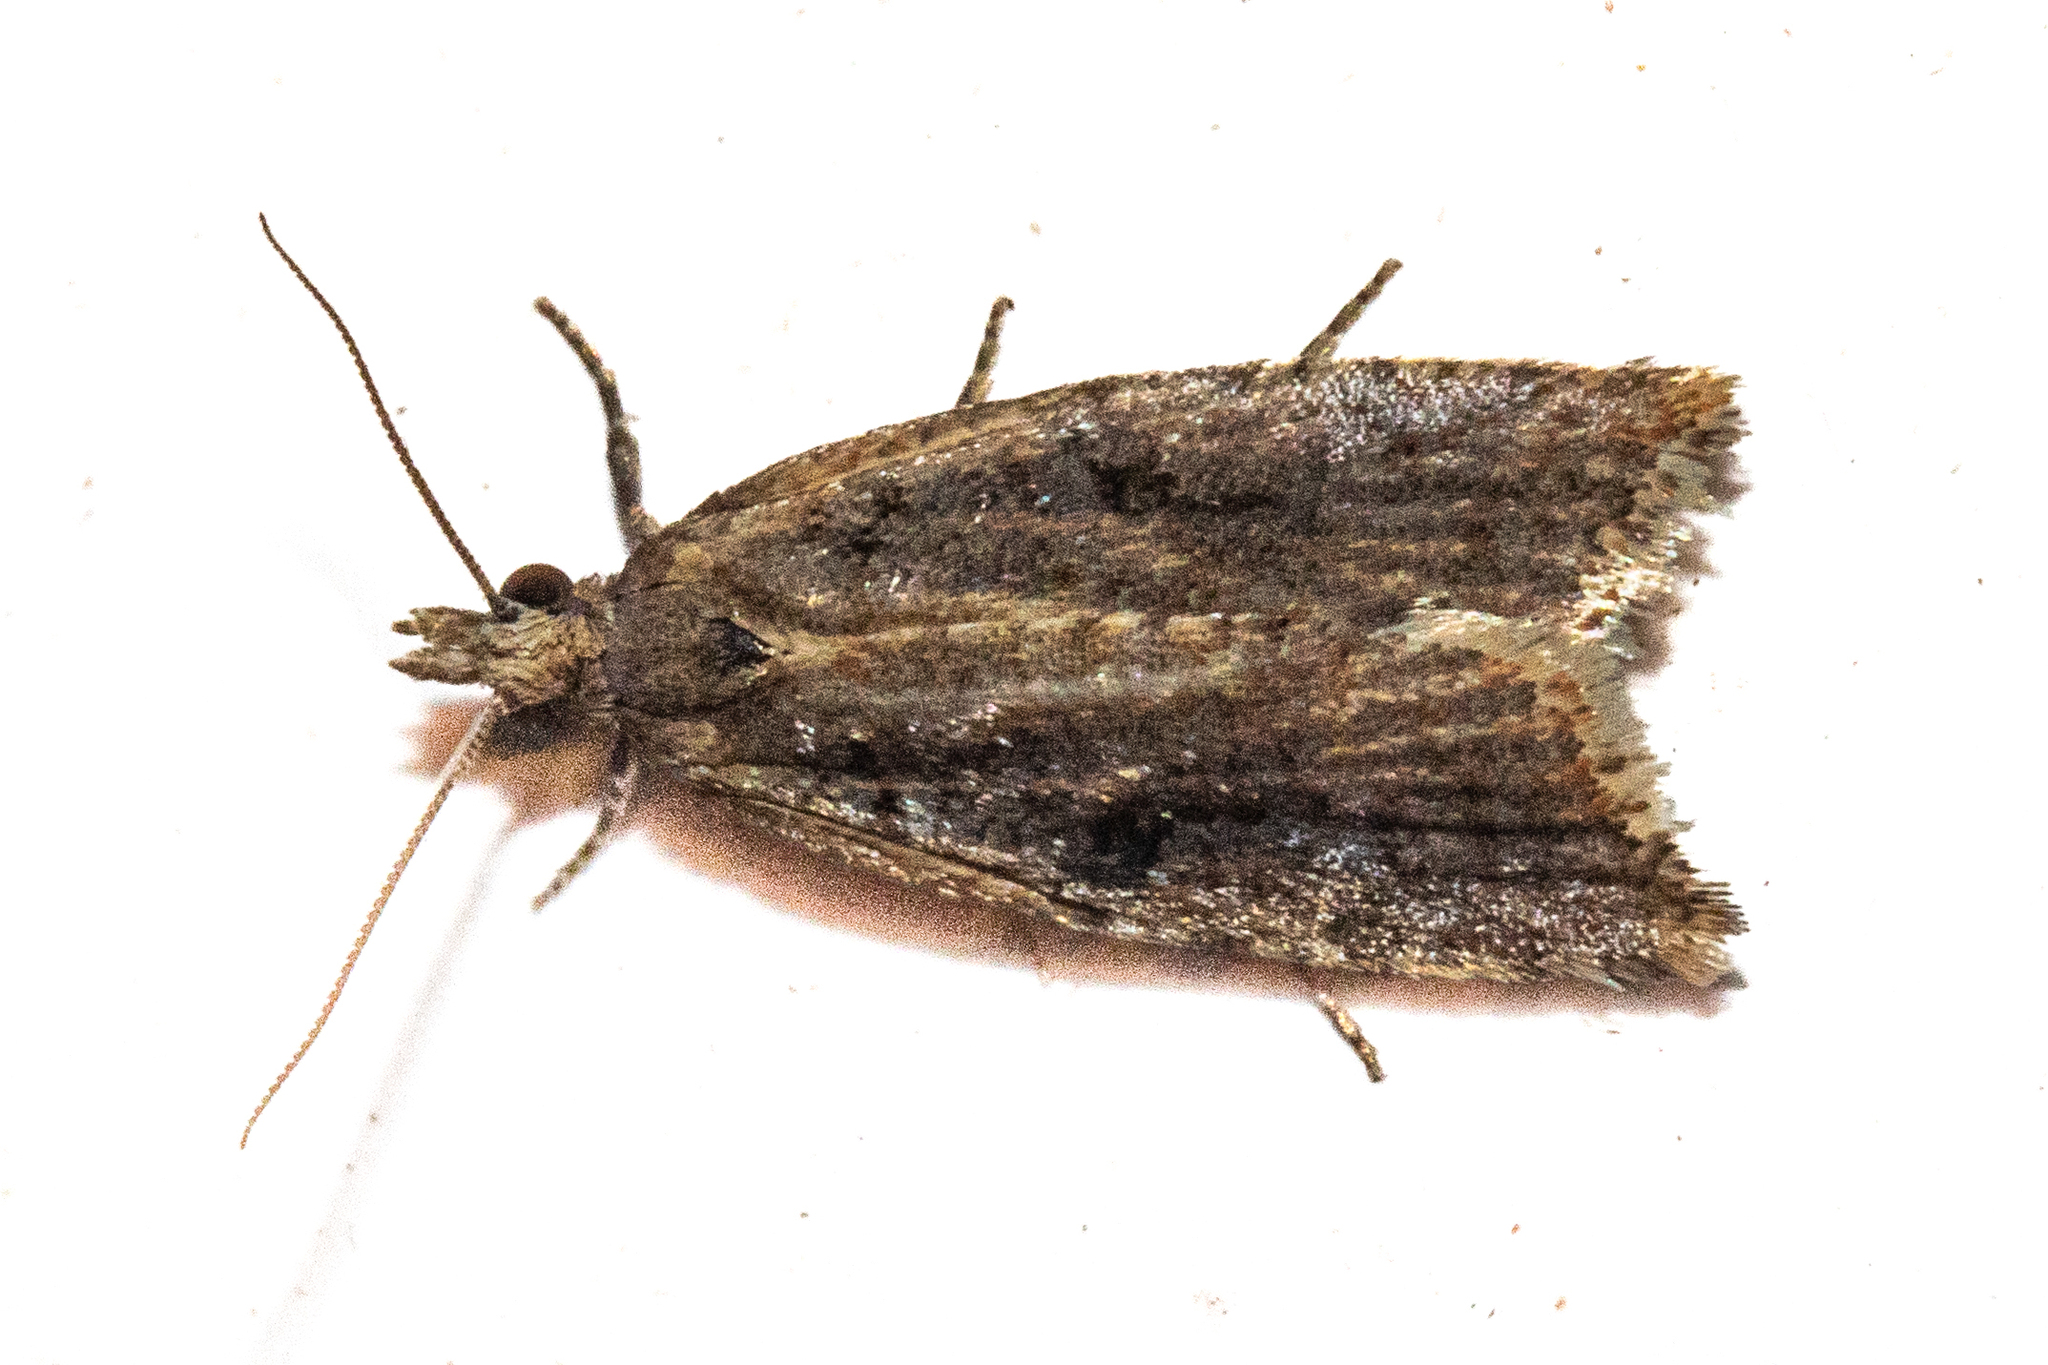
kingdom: Animalia
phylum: Arthropoda
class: Insecta
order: Lepidoptera
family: Tortricidae
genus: Capua
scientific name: Capua semiferana
